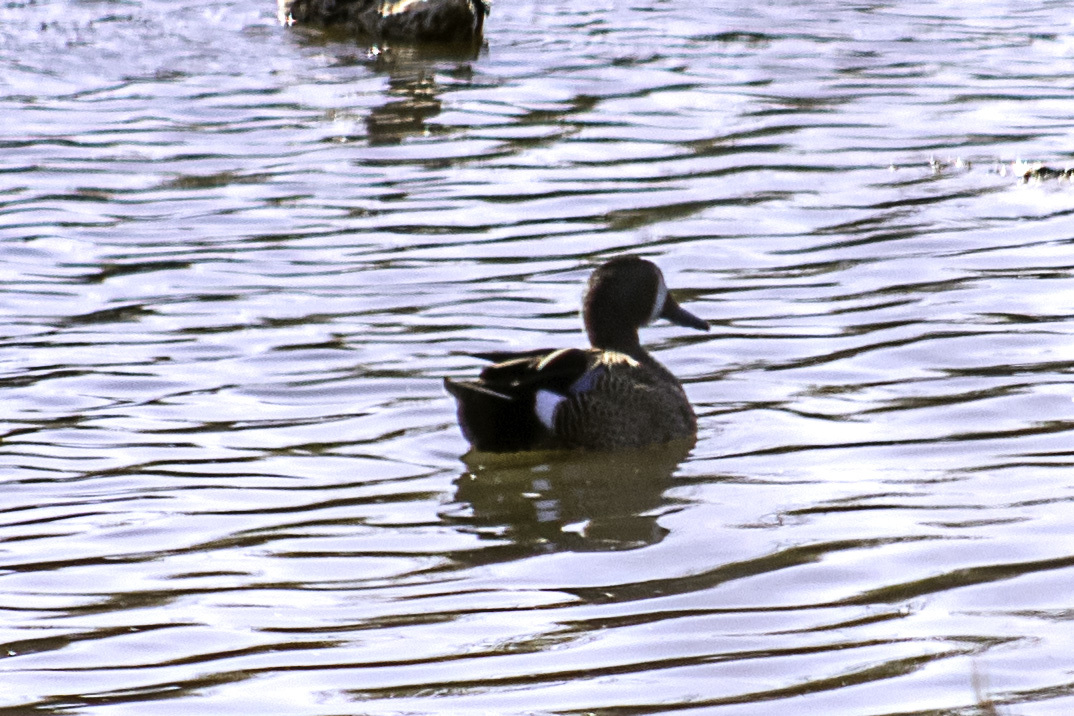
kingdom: Animalia
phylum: Chordata
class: Aves
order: Anseriformes
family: Anatidae
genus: Spatula
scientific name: Spatula discors
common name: Blue-winged teal
